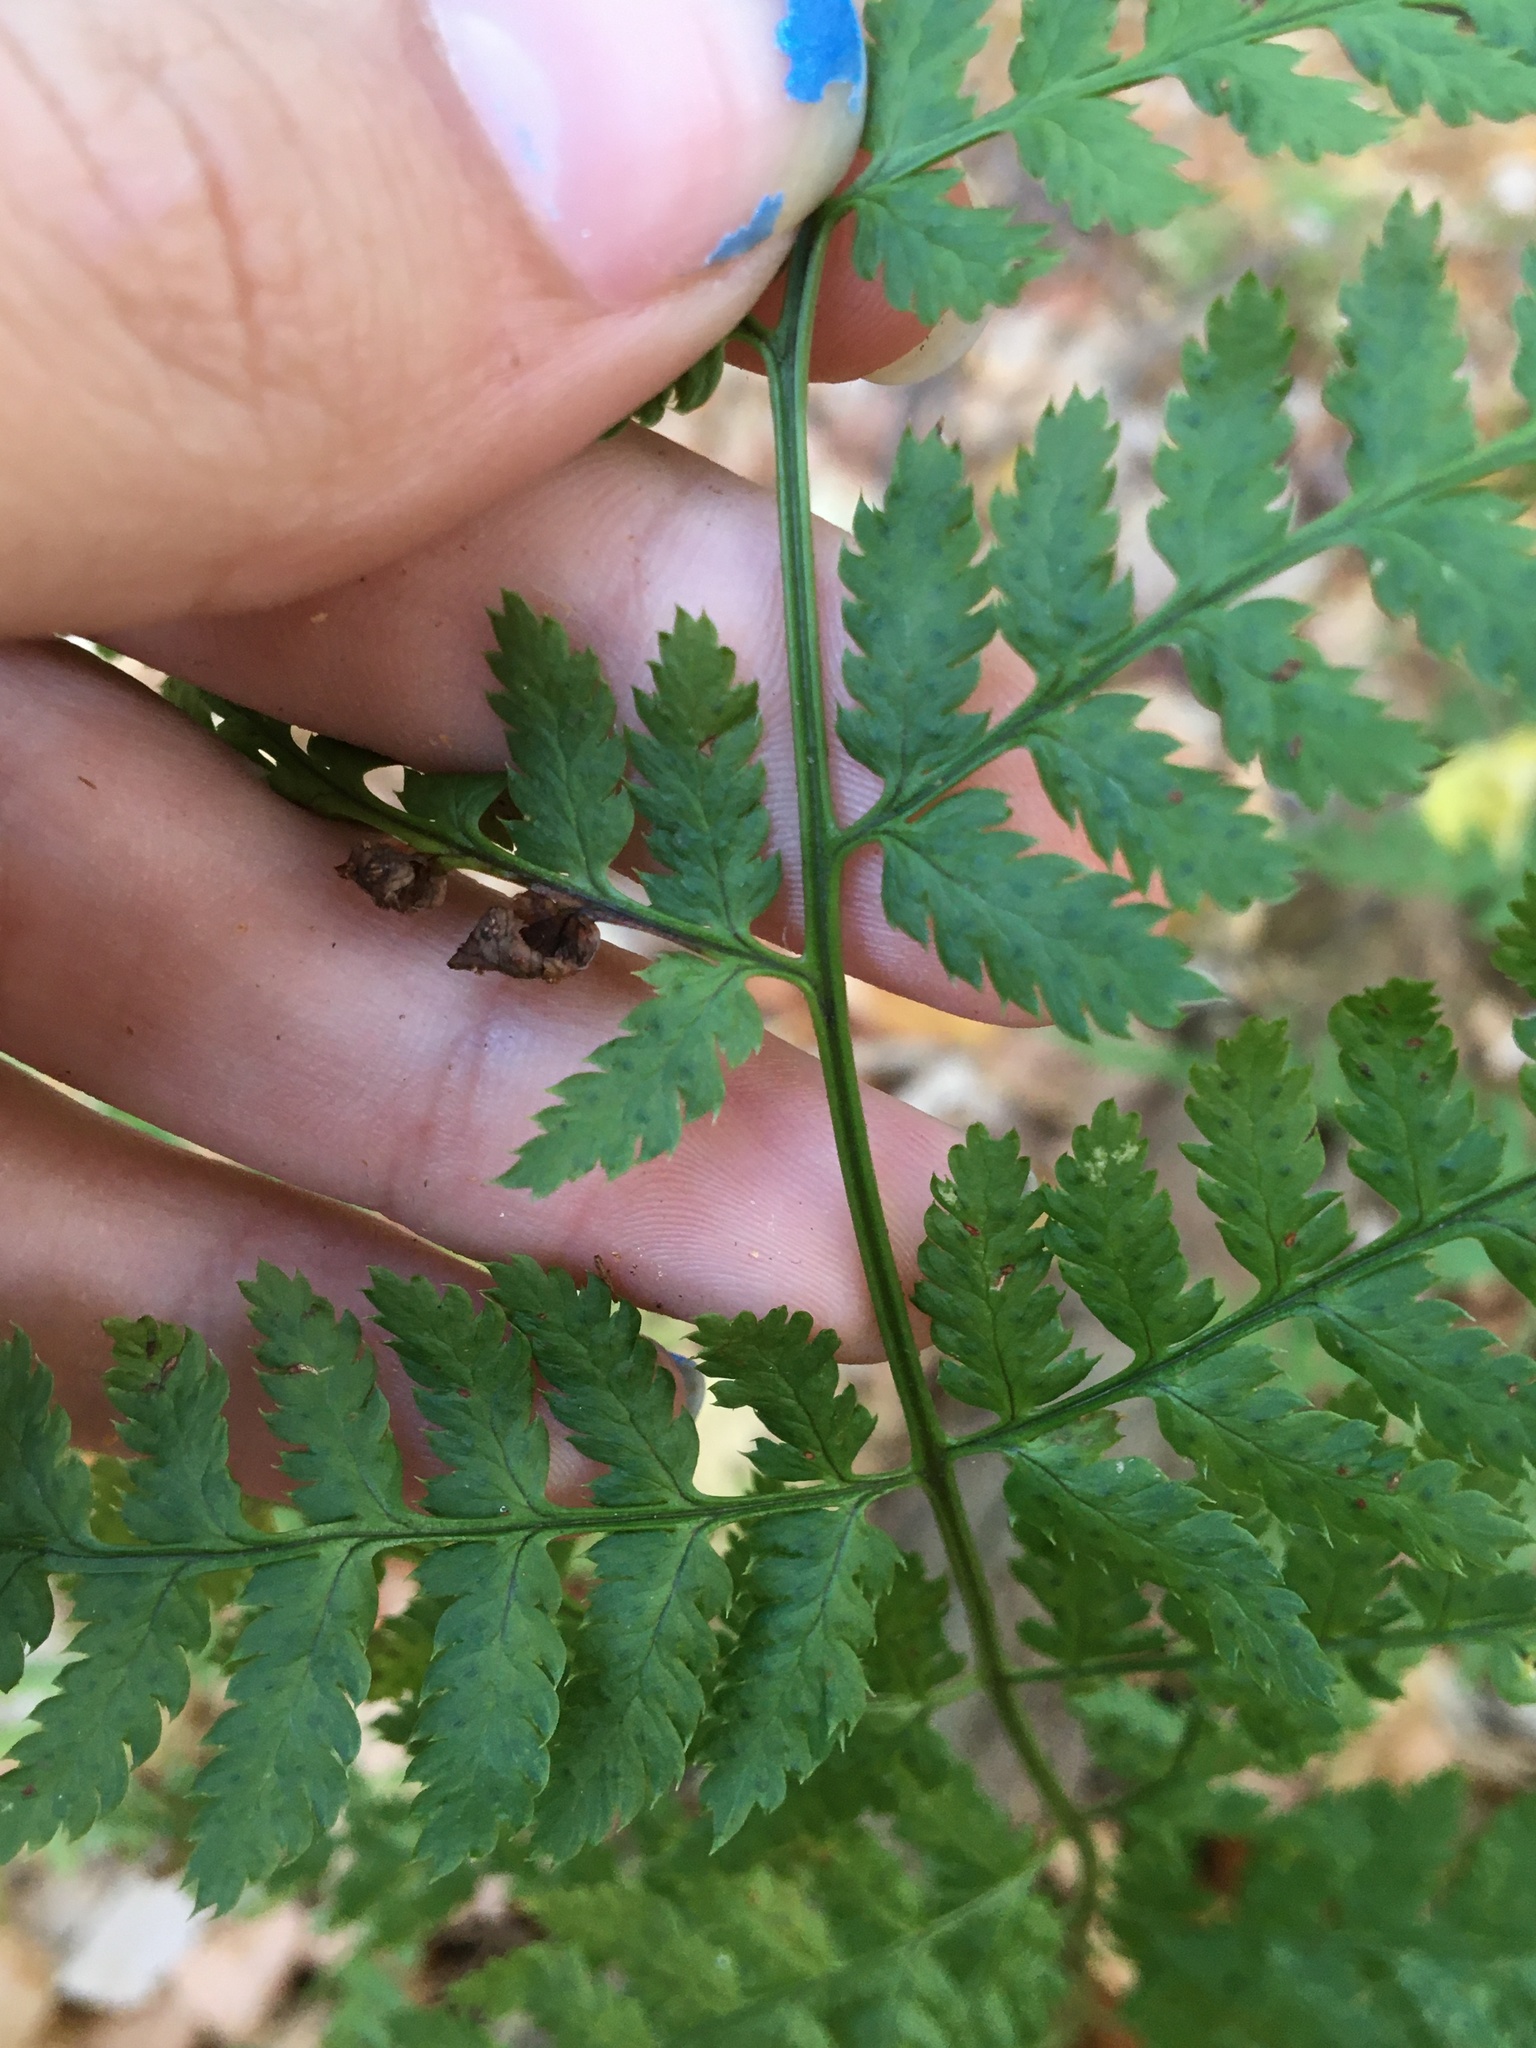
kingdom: Plantae
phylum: Tracheophyta
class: Polypodiopsida
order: Polypodiales
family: Dryopteridaceae
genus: Dryopteris
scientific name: Dryopteris carthusiana
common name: Narrow buckler-fern
